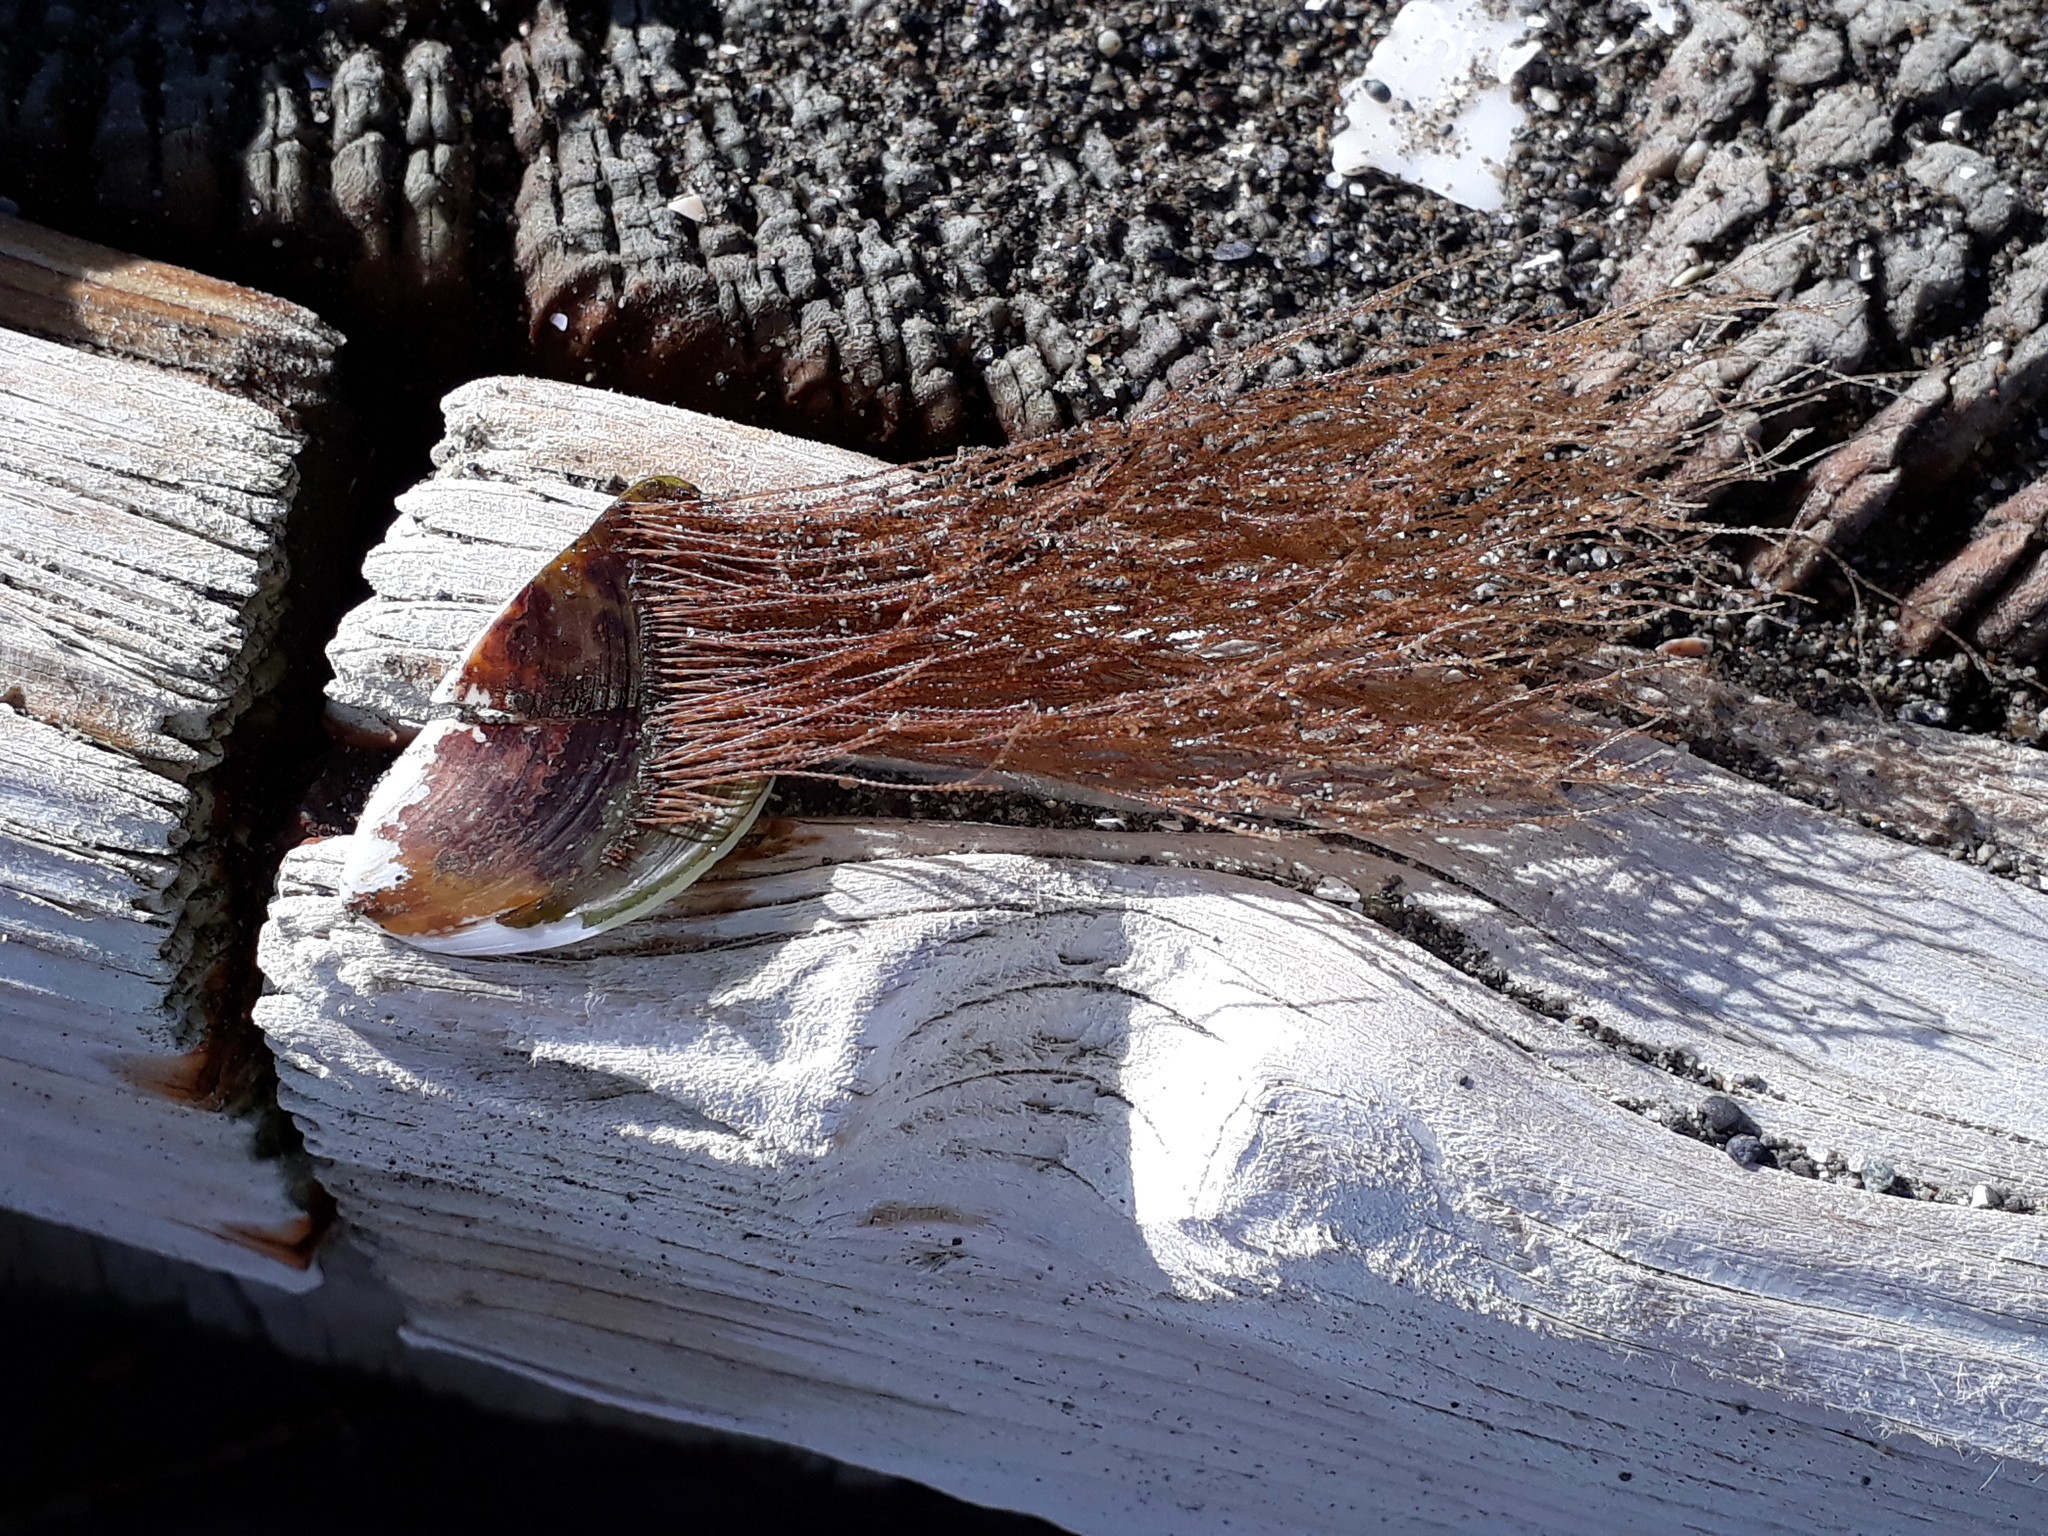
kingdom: Animalia
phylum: Cnidaria
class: Hydrozoa
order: Leptothecata
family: Sertulariidae
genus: Amphisbetia
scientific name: Amphisbetia bispinosa
